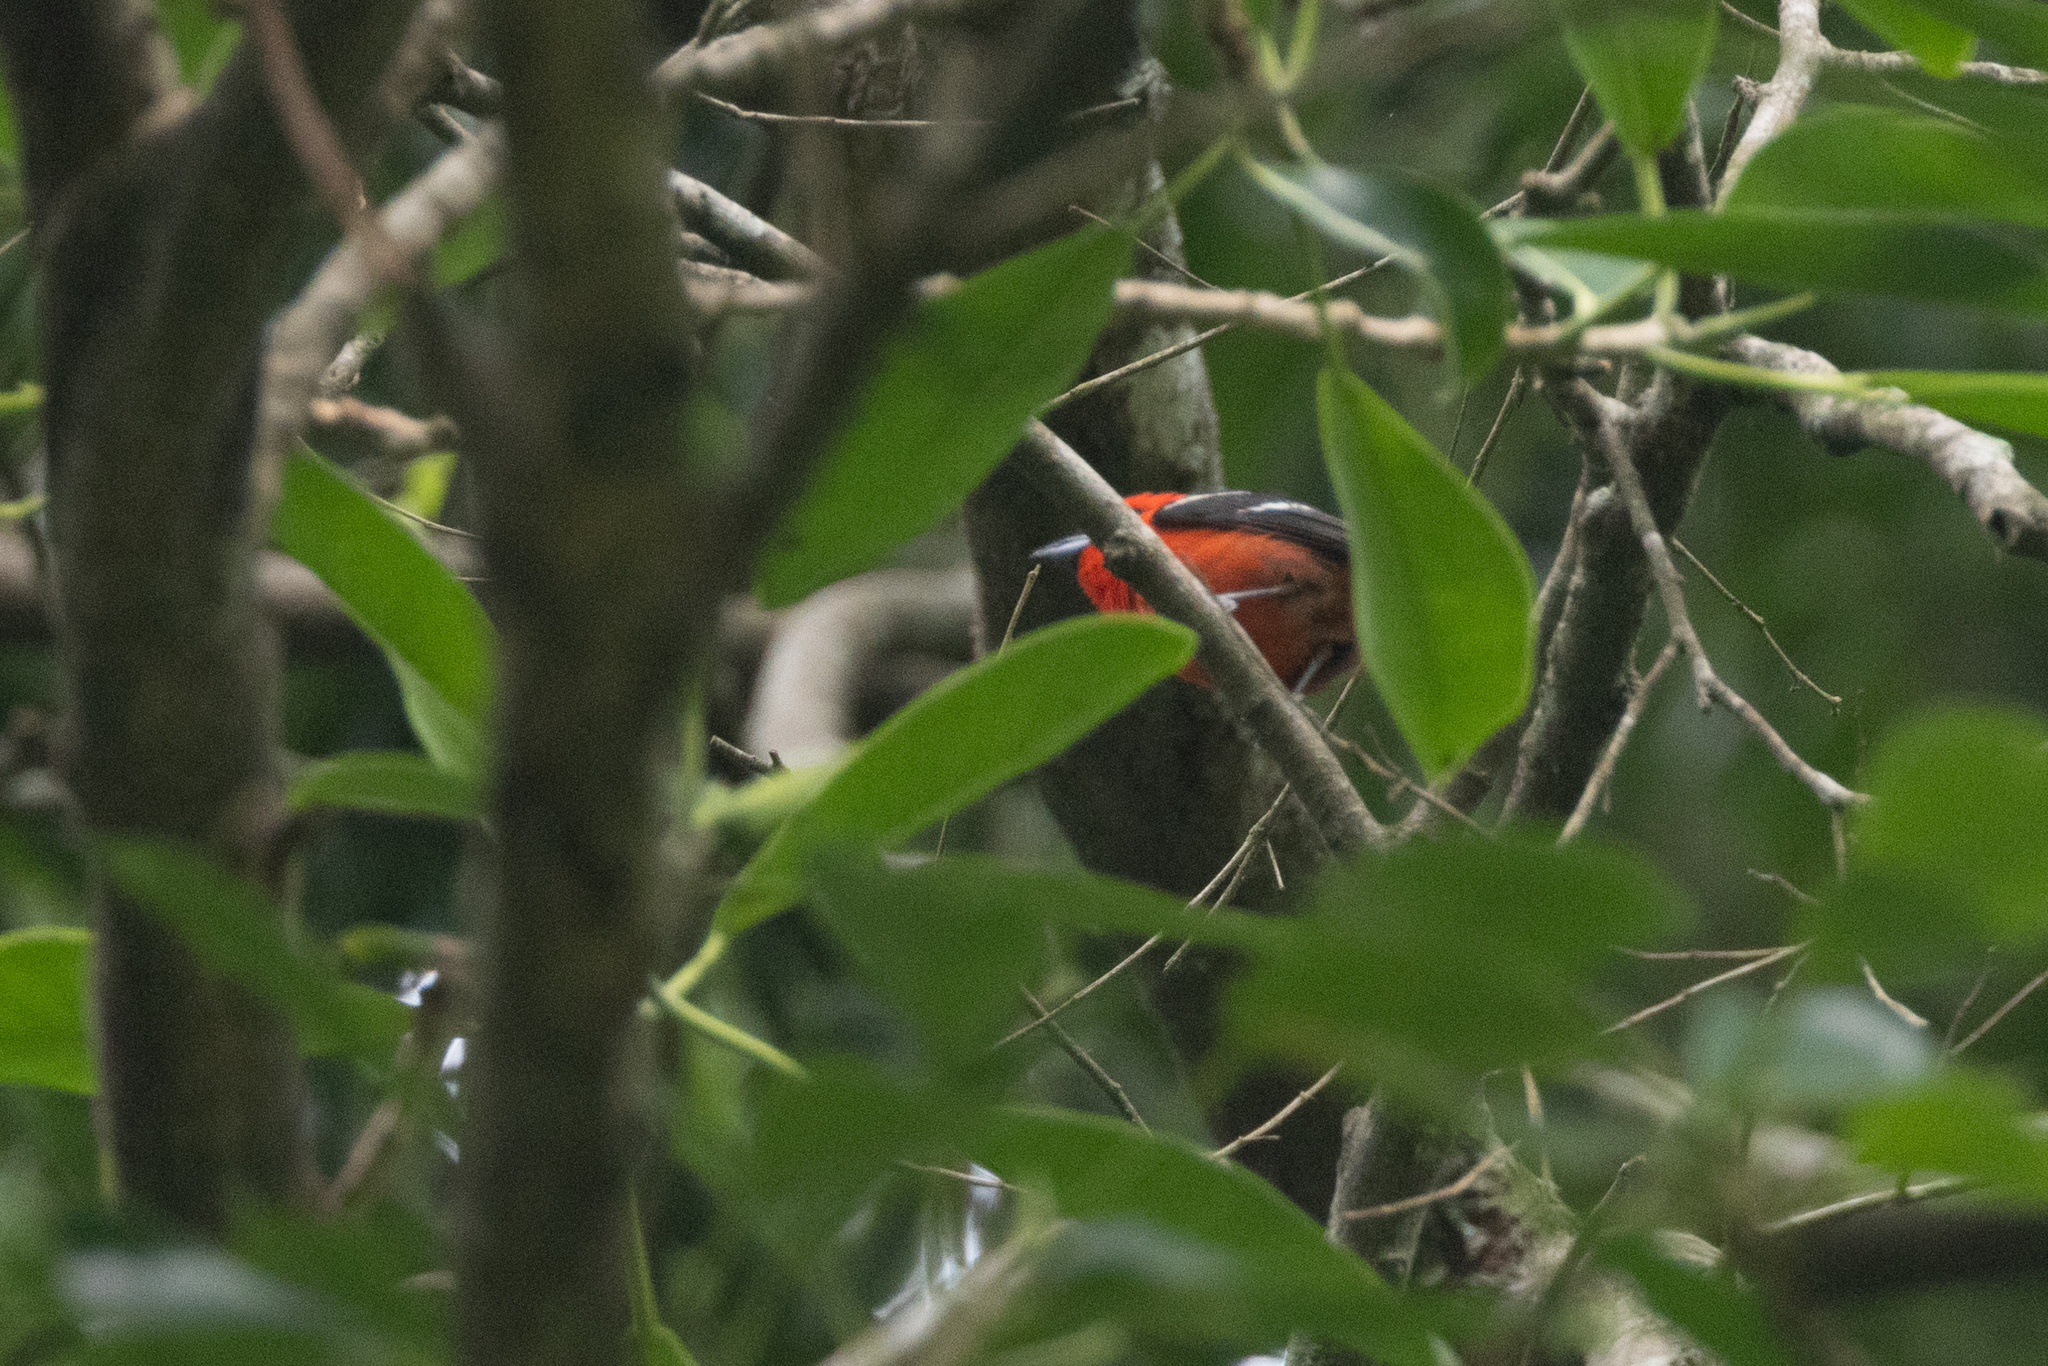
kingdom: Animalia
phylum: Chordata
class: Aves
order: Passeriformes
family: Cardinalidae
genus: Piranga
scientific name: Piranga leucoptera
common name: White-winged tanager
